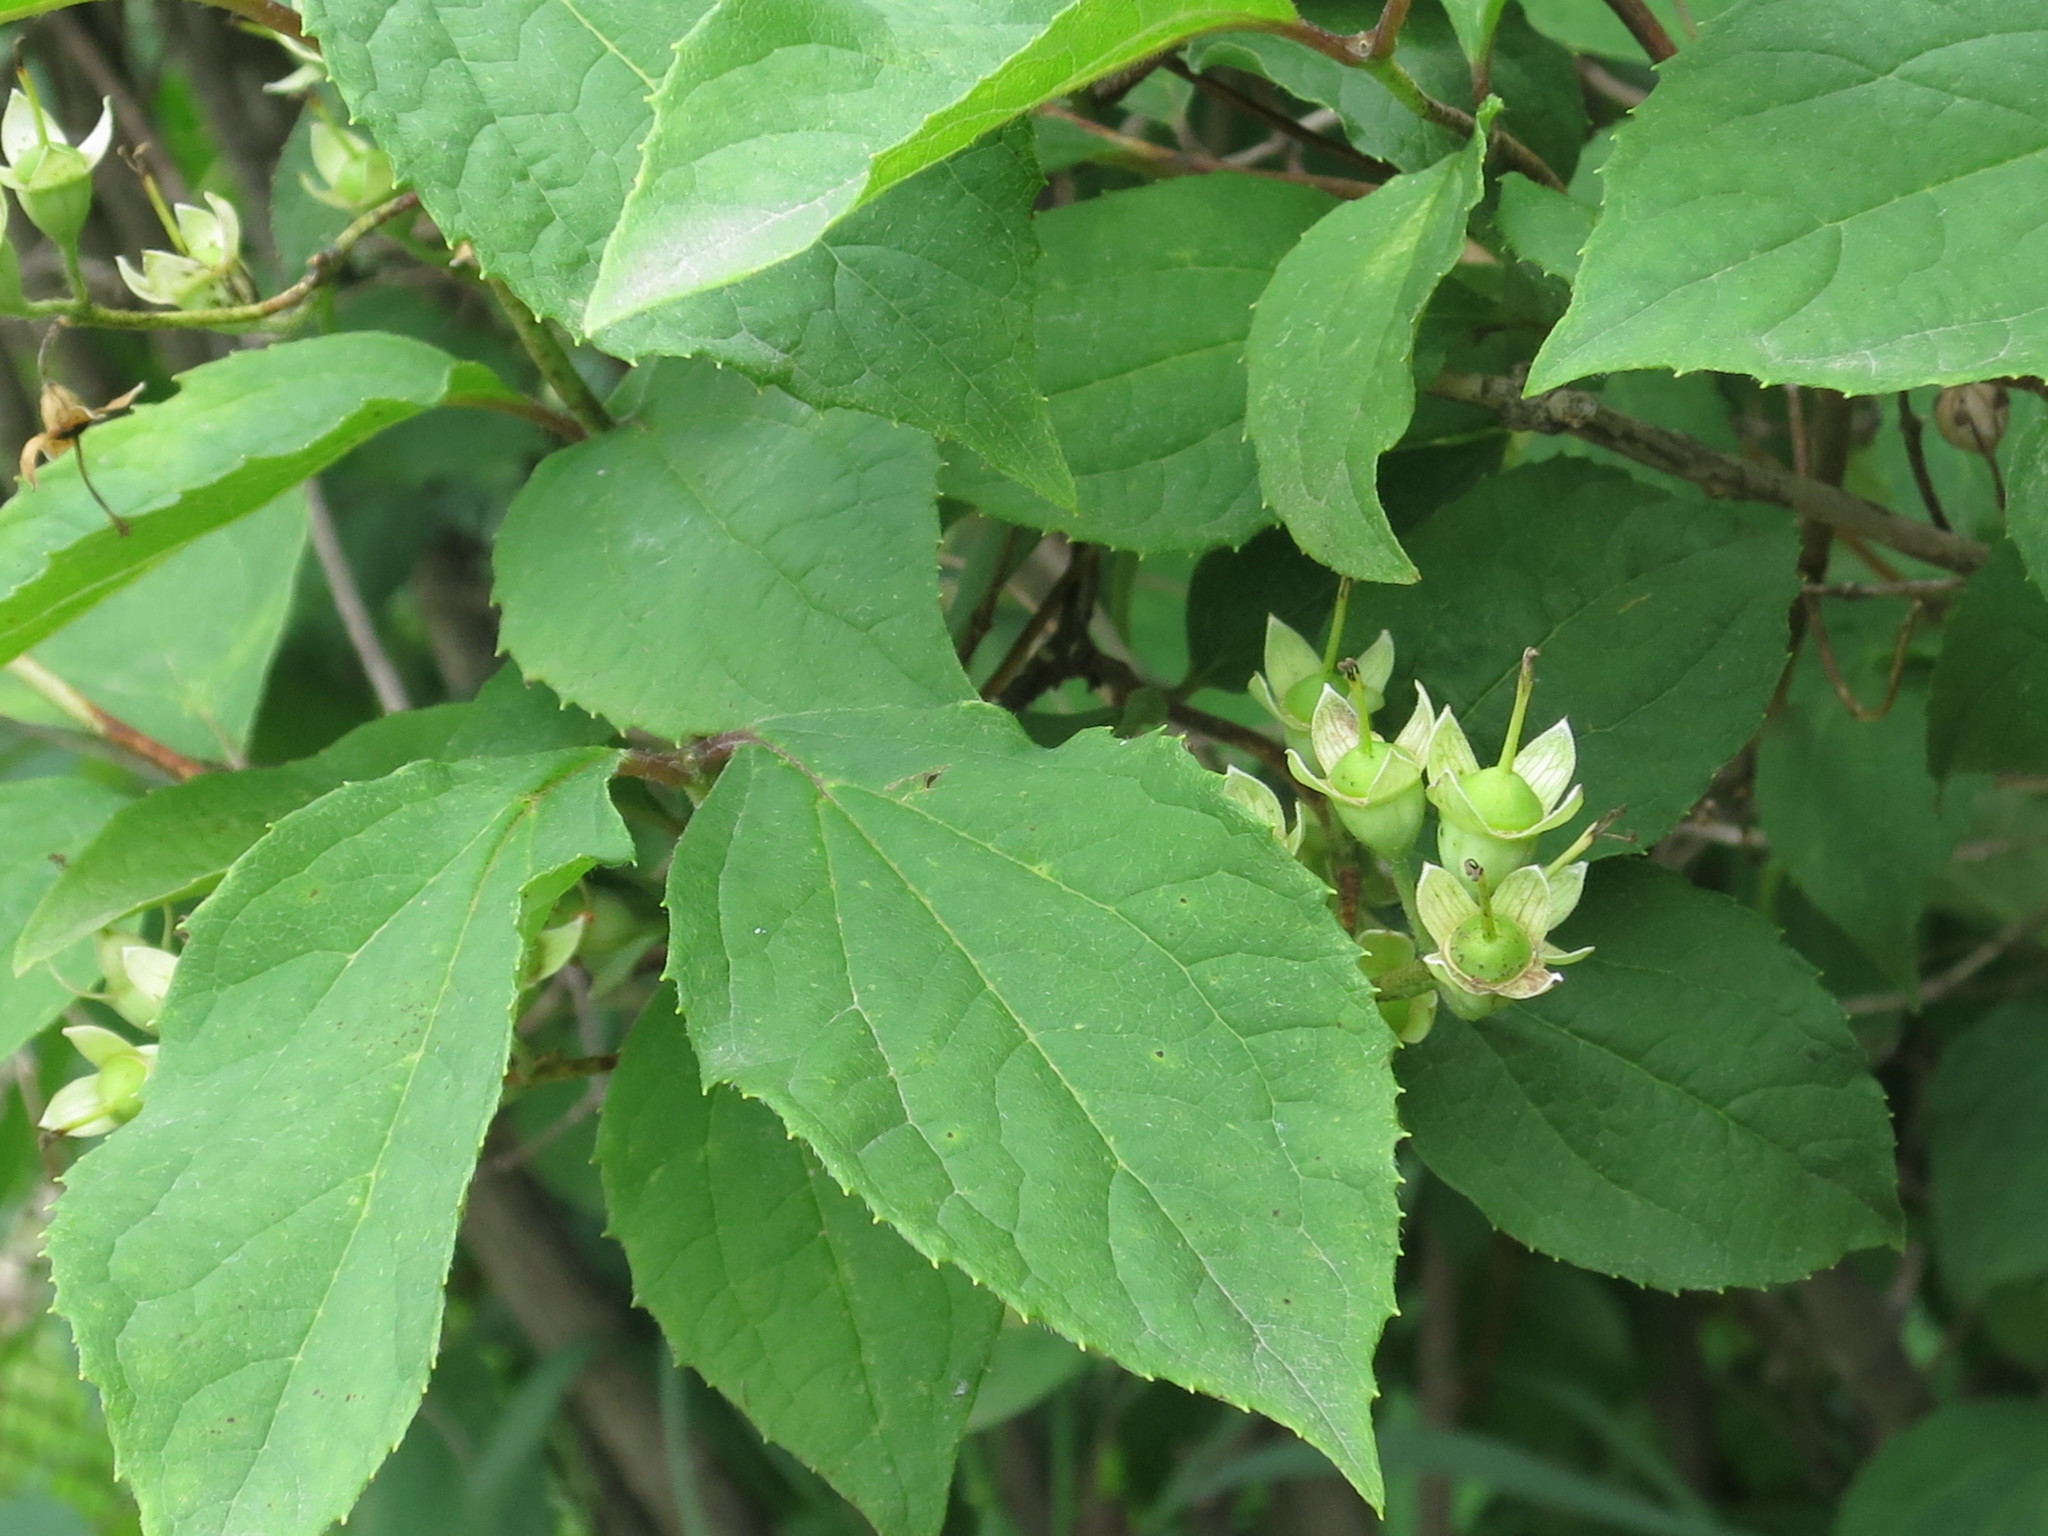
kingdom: Plantae
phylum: Tracheophyta
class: Magnoliopsida
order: Cornales
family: Hydrangeaceae
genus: Philadelphus
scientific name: Philadelphus tenuifolius
